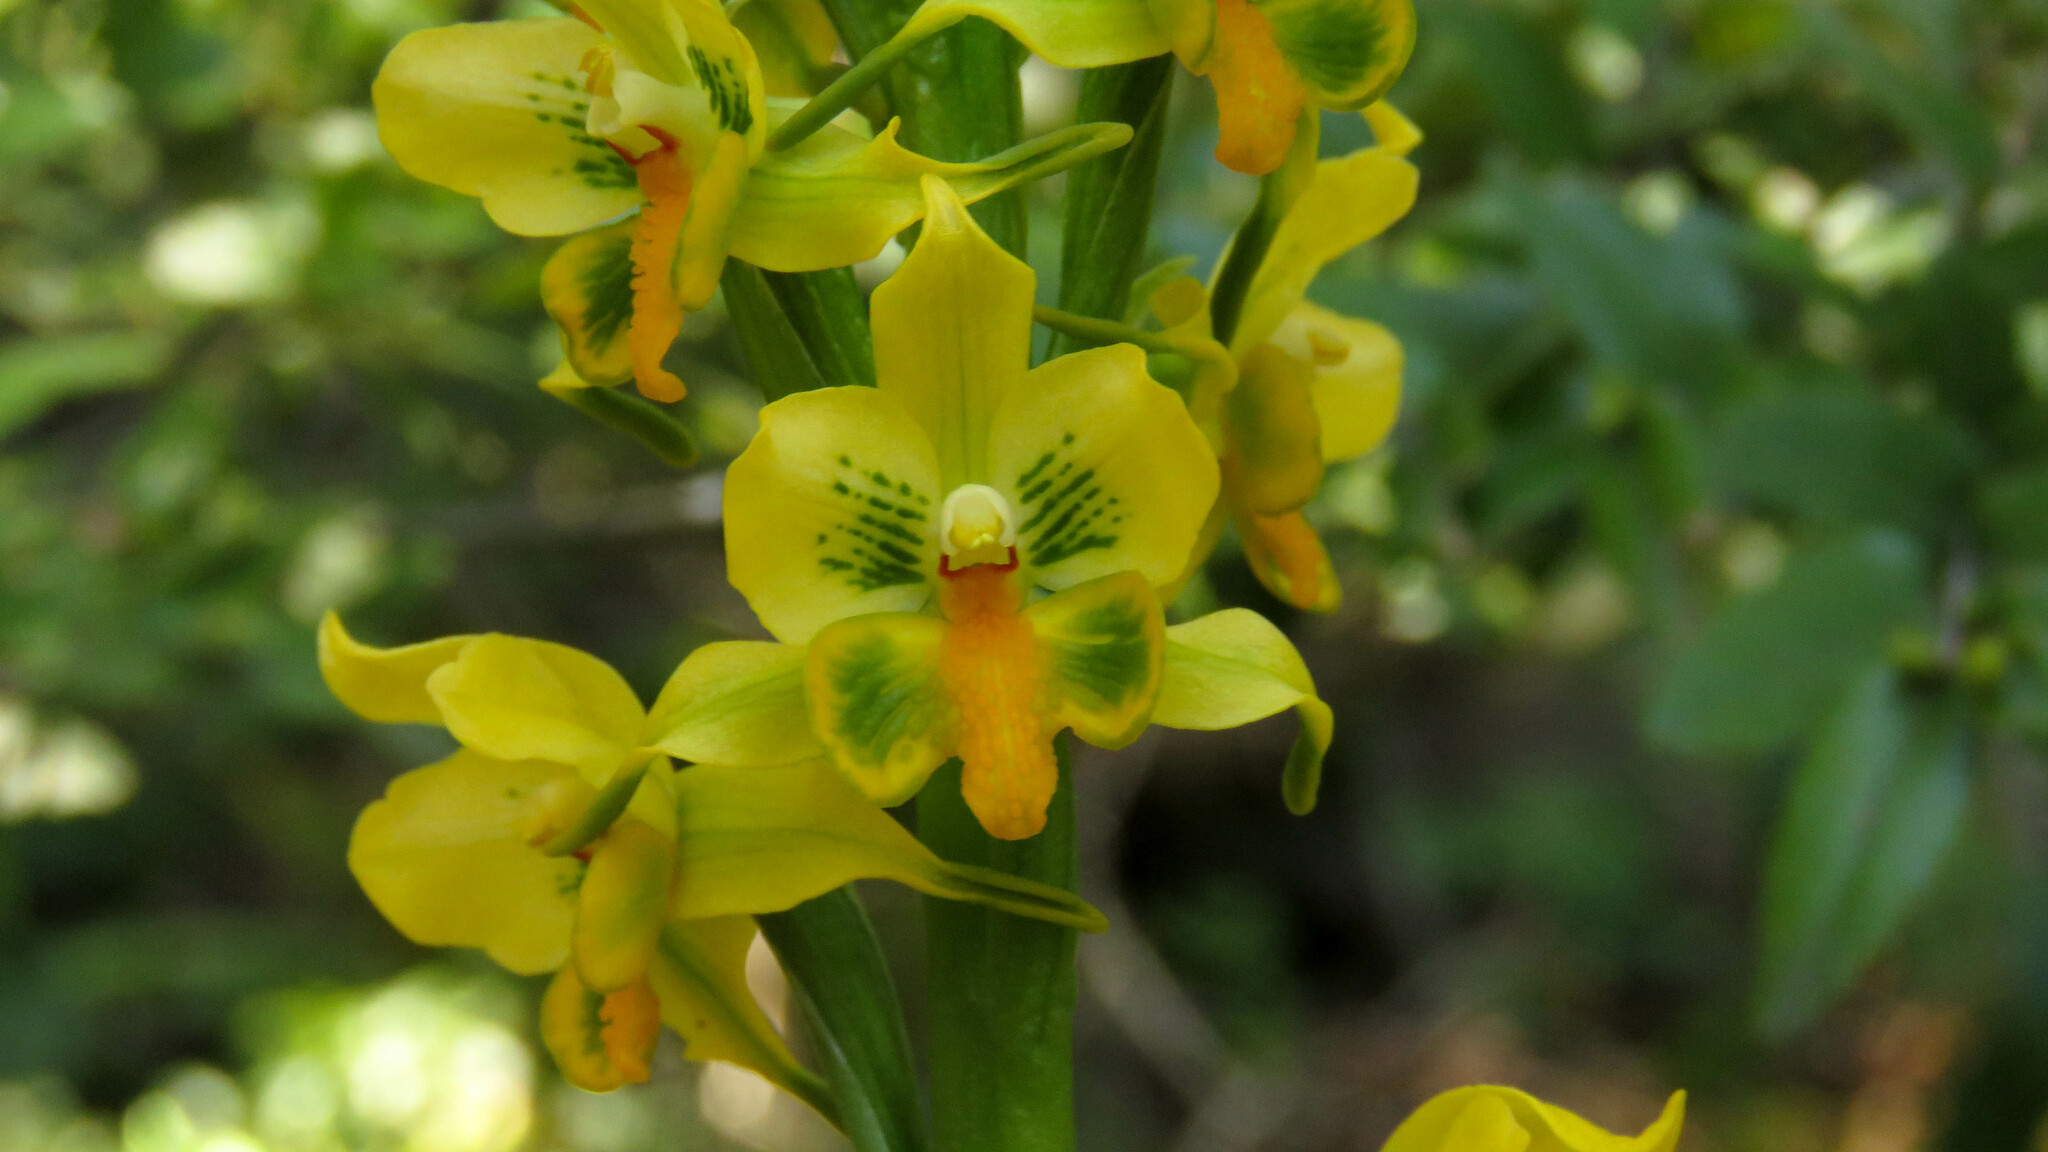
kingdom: Plantae
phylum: Tracheophyta
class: Liliopsida
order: Asparagales
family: Orchidaceae
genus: Gavilea
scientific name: Gavilea odoratissima
